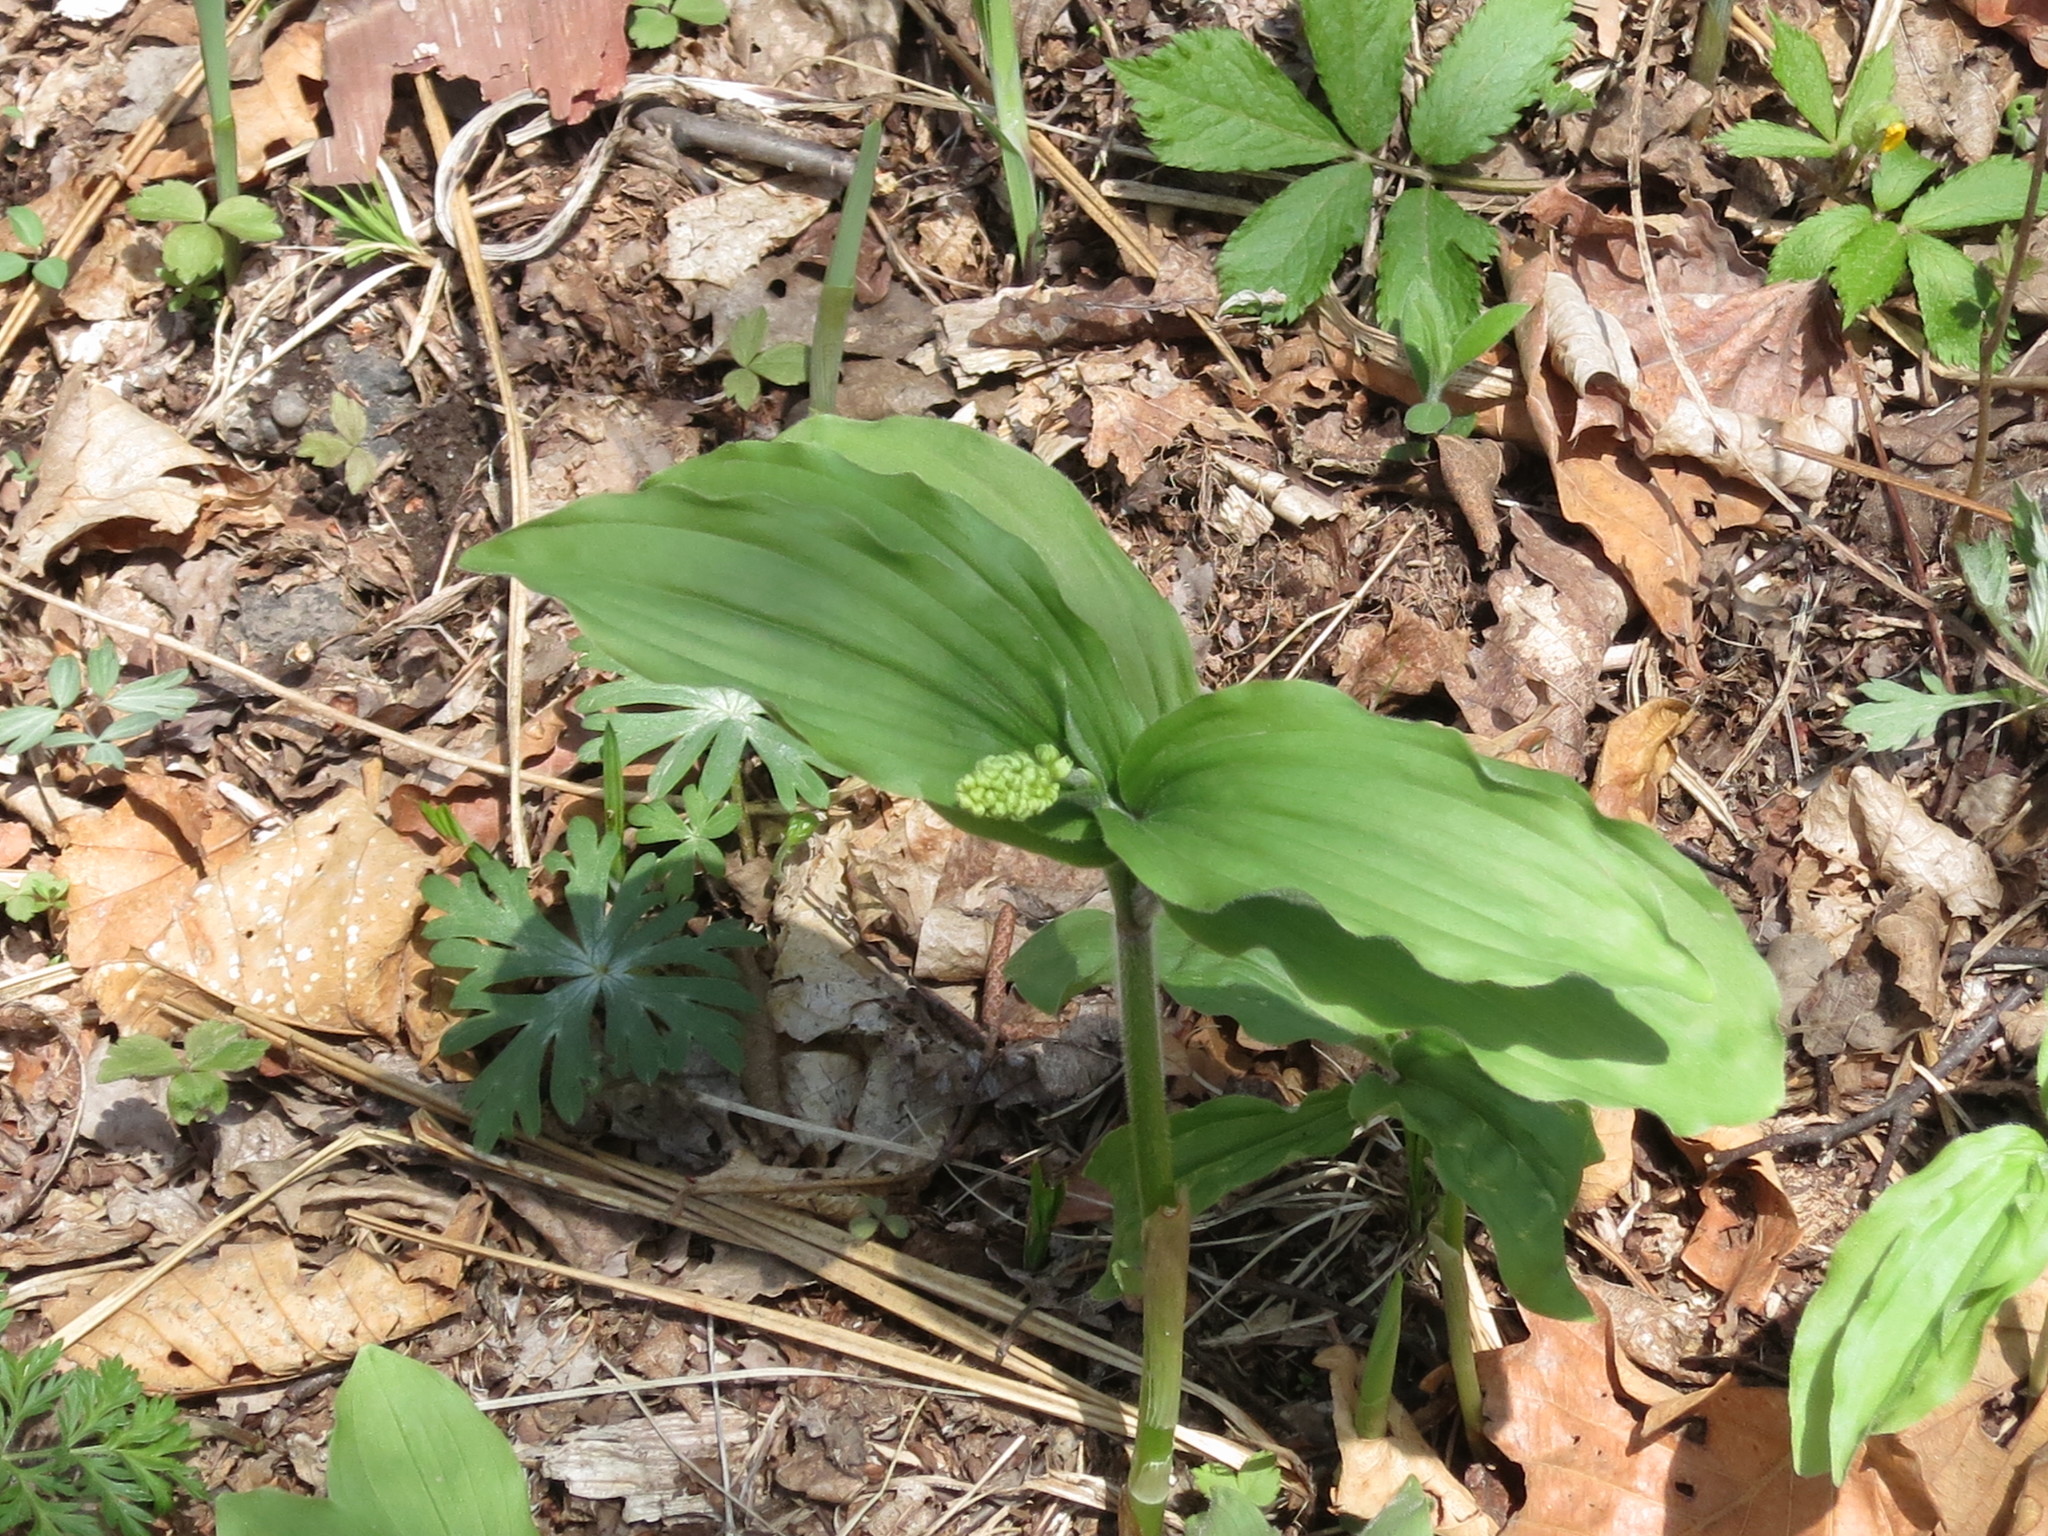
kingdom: Plantae
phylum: Tracheophyta
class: Liliopsida
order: Asparagales
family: Asparagaceae
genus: Maianthemum
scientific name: Maianthemum japonicum
